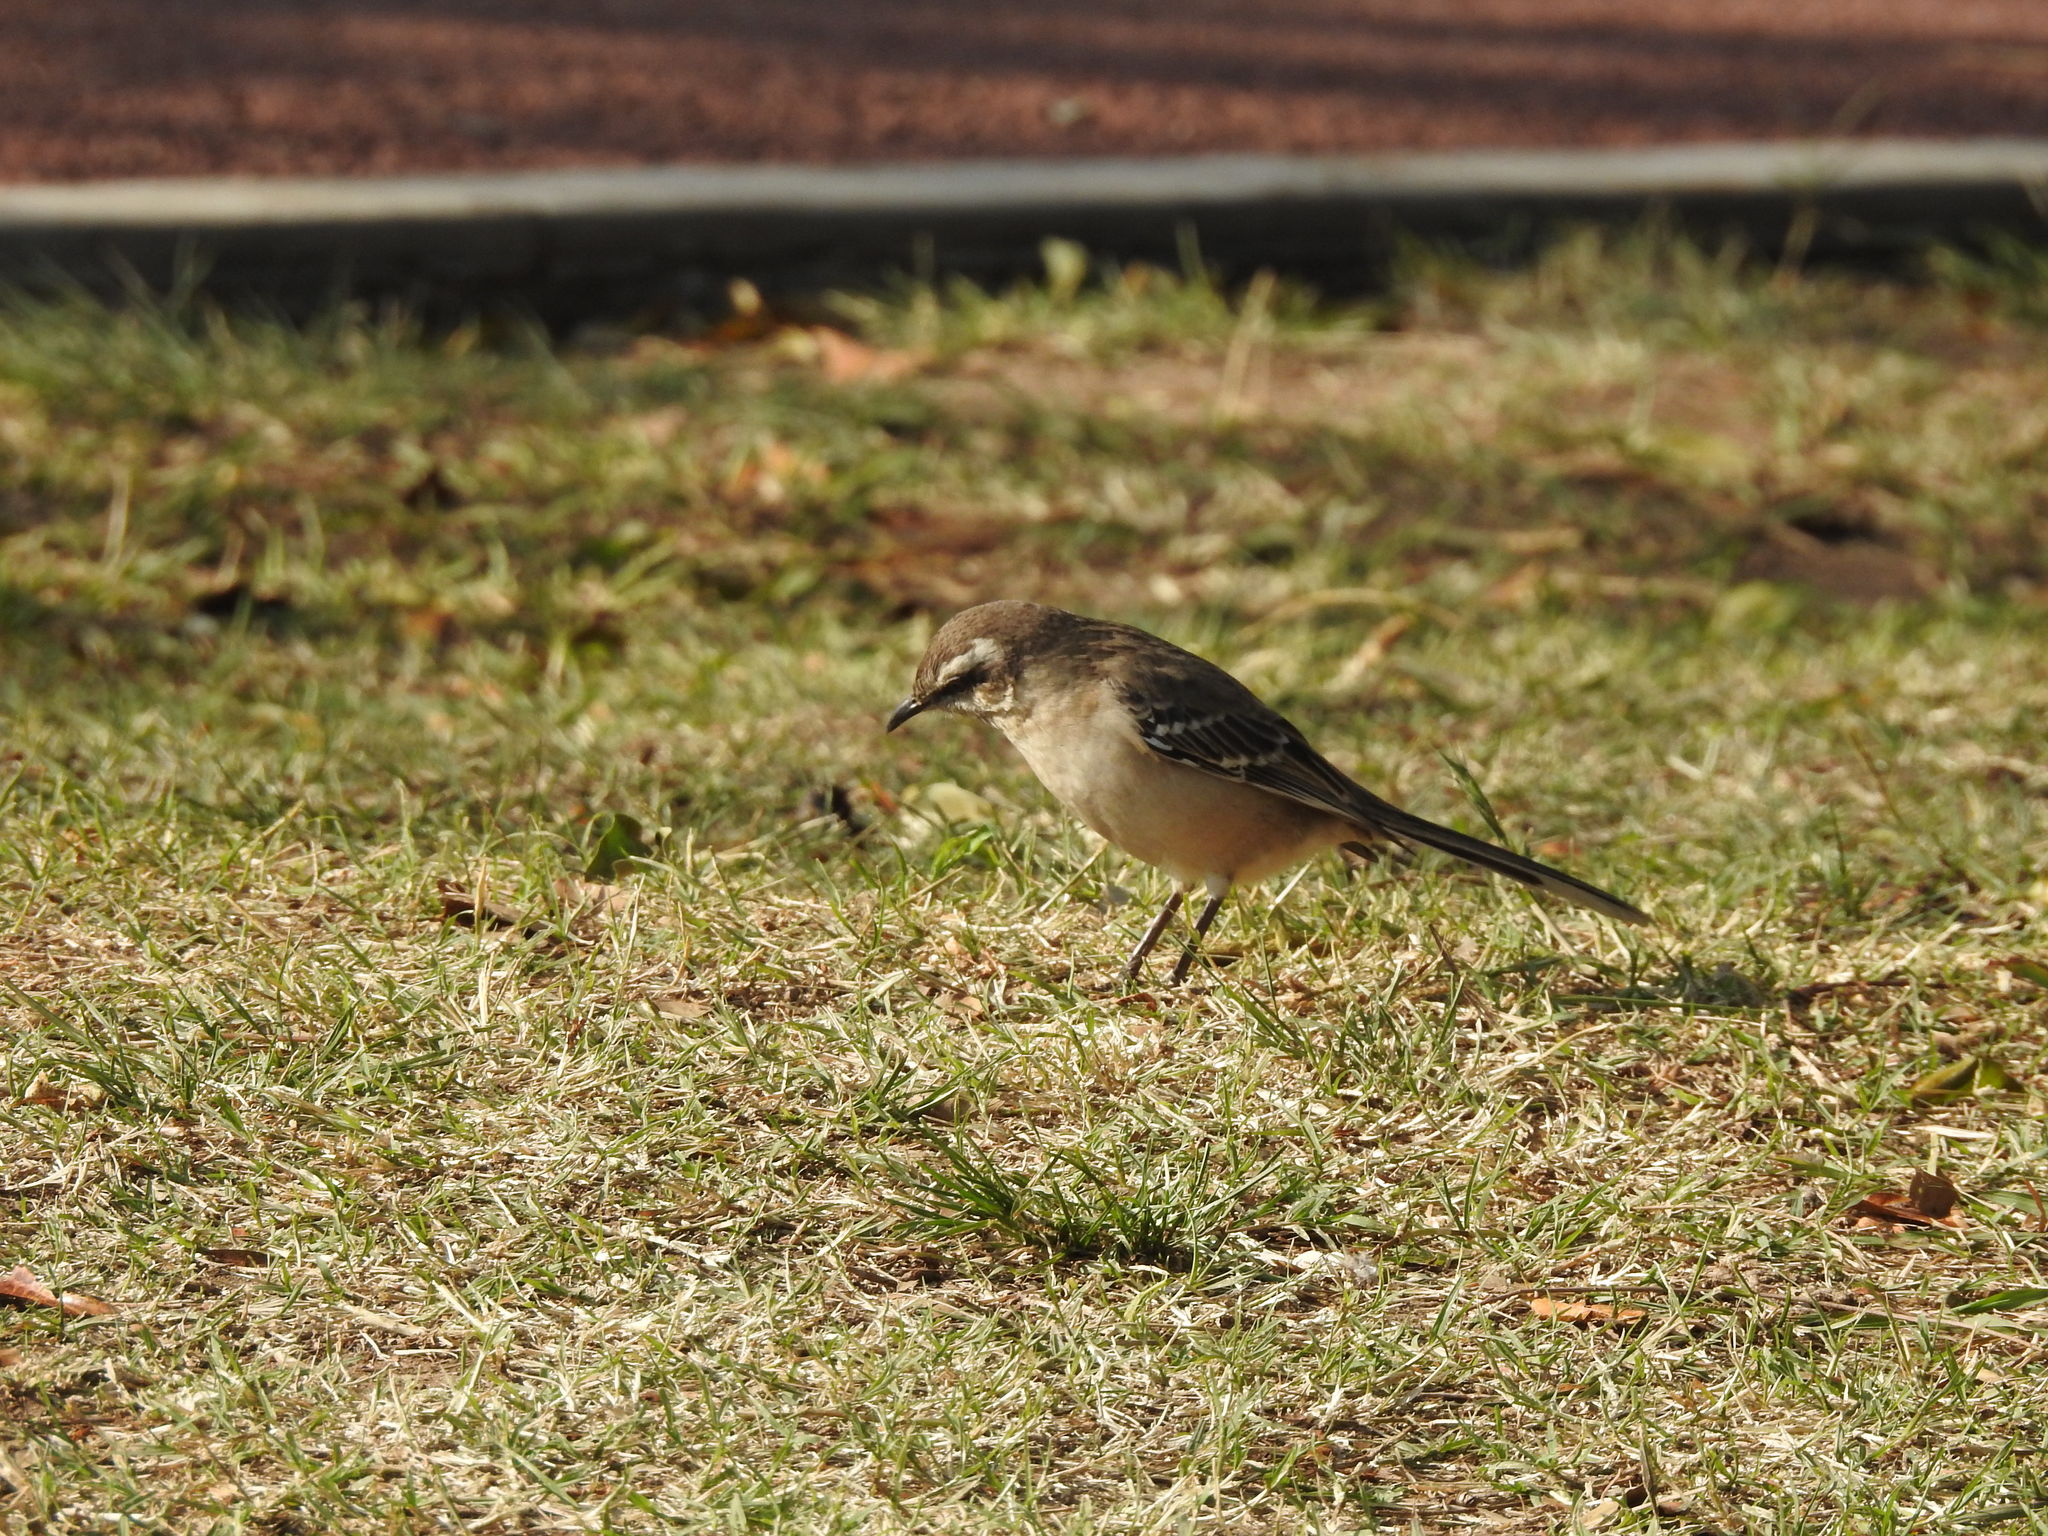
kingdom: Animalia
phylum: Chordata
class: Aves
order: Passeriformes
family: Mimidae
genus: Mimus
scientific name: Mimus saturninus
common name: Chalk-browed mockingbird
